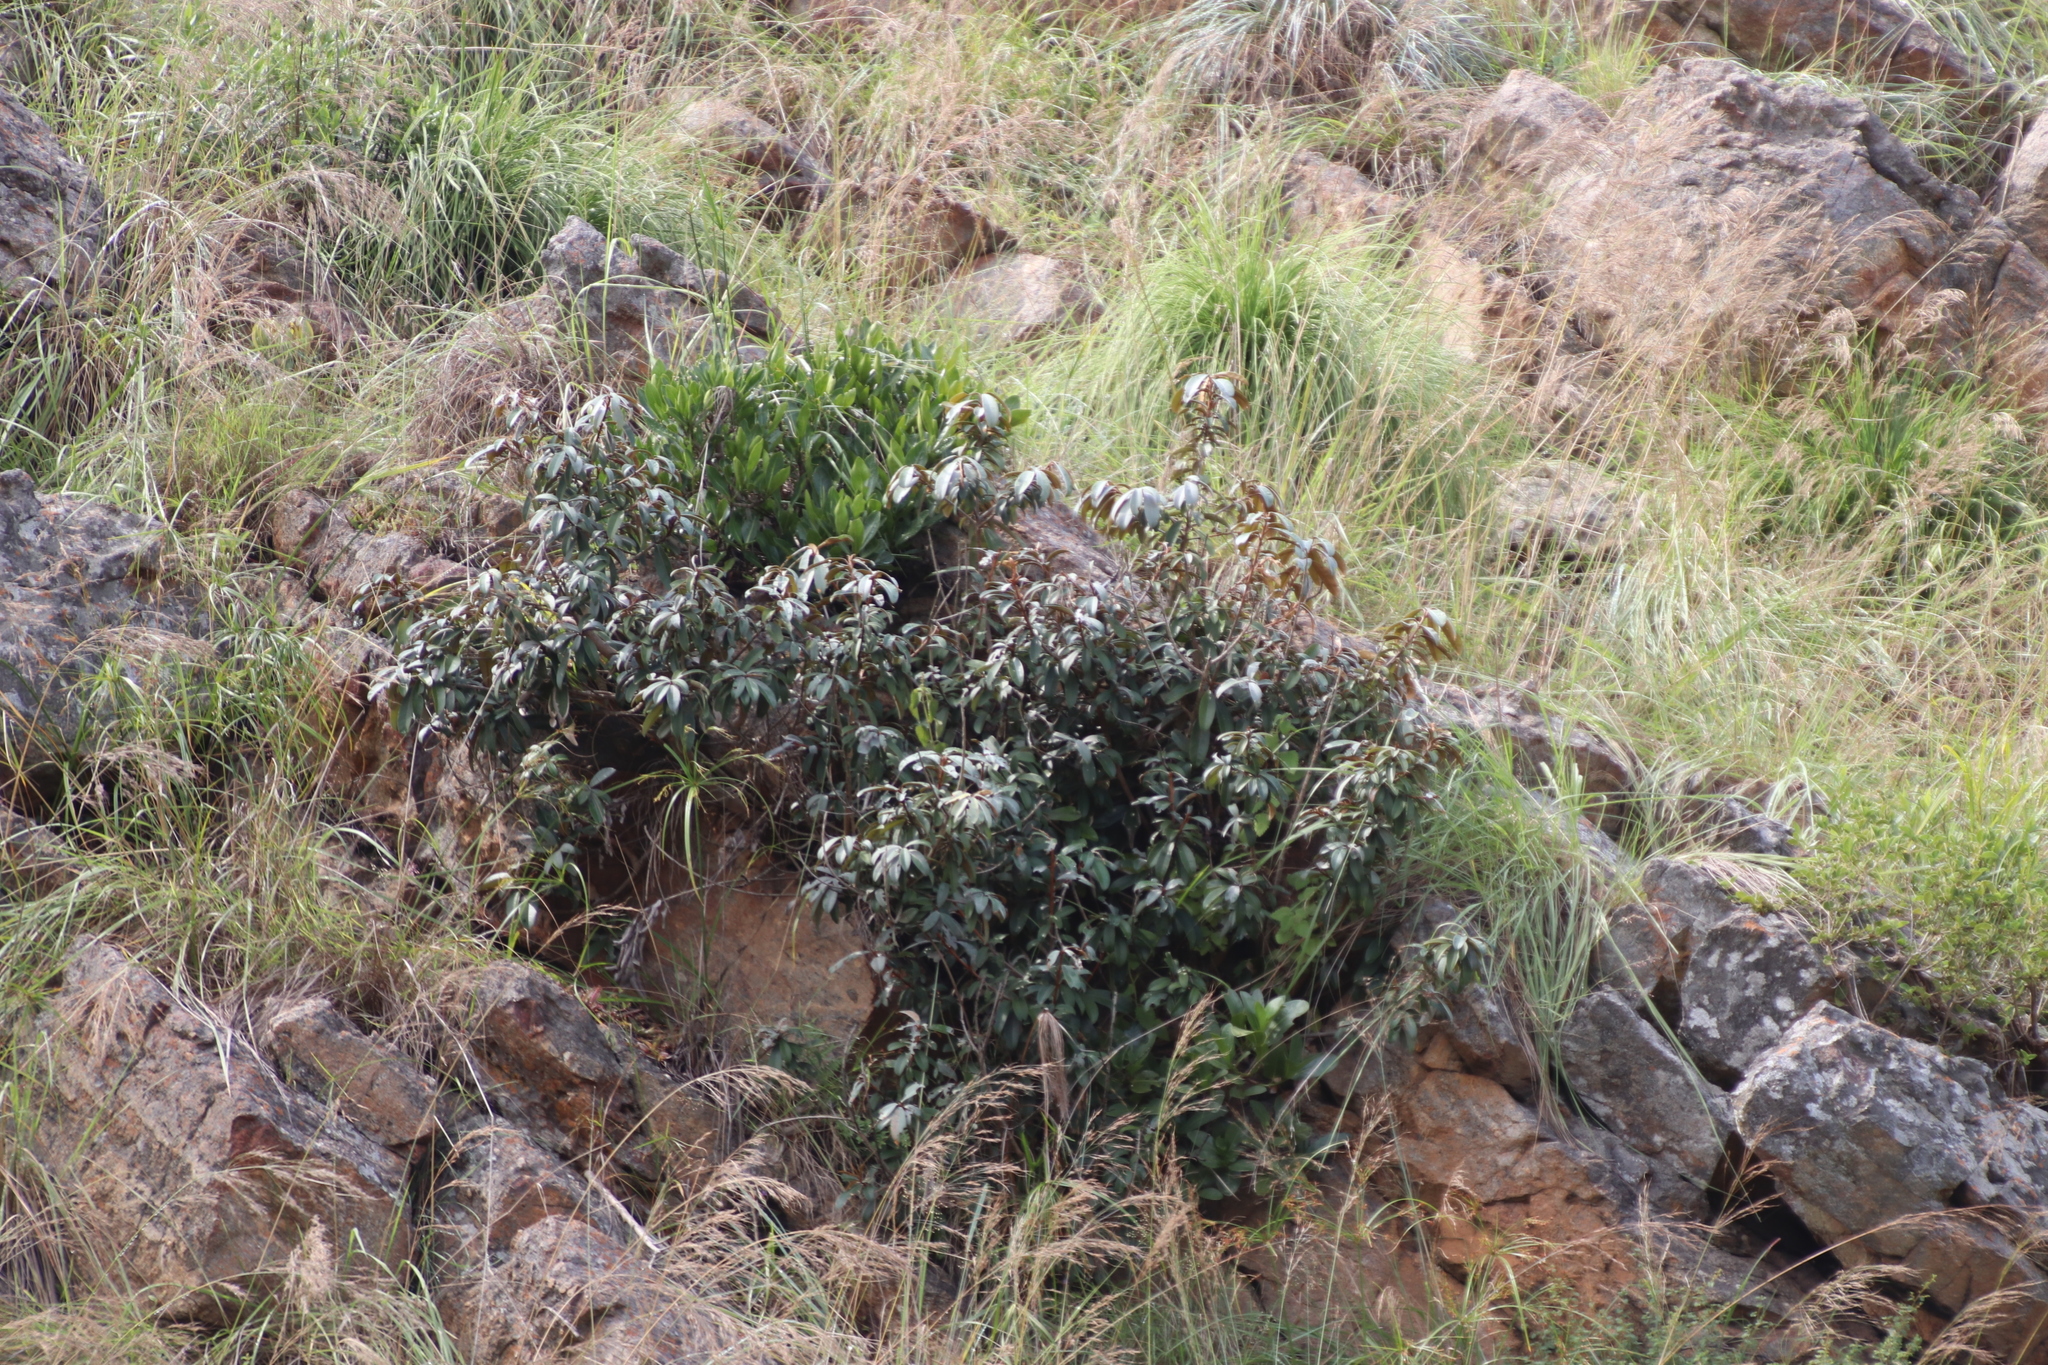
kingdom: Plantae
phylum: Tracheophyta
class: Magnoliopsida
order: Ericales
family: Sapotaceae
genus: Englerophytum
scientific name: Englerophytum magalismontanum
